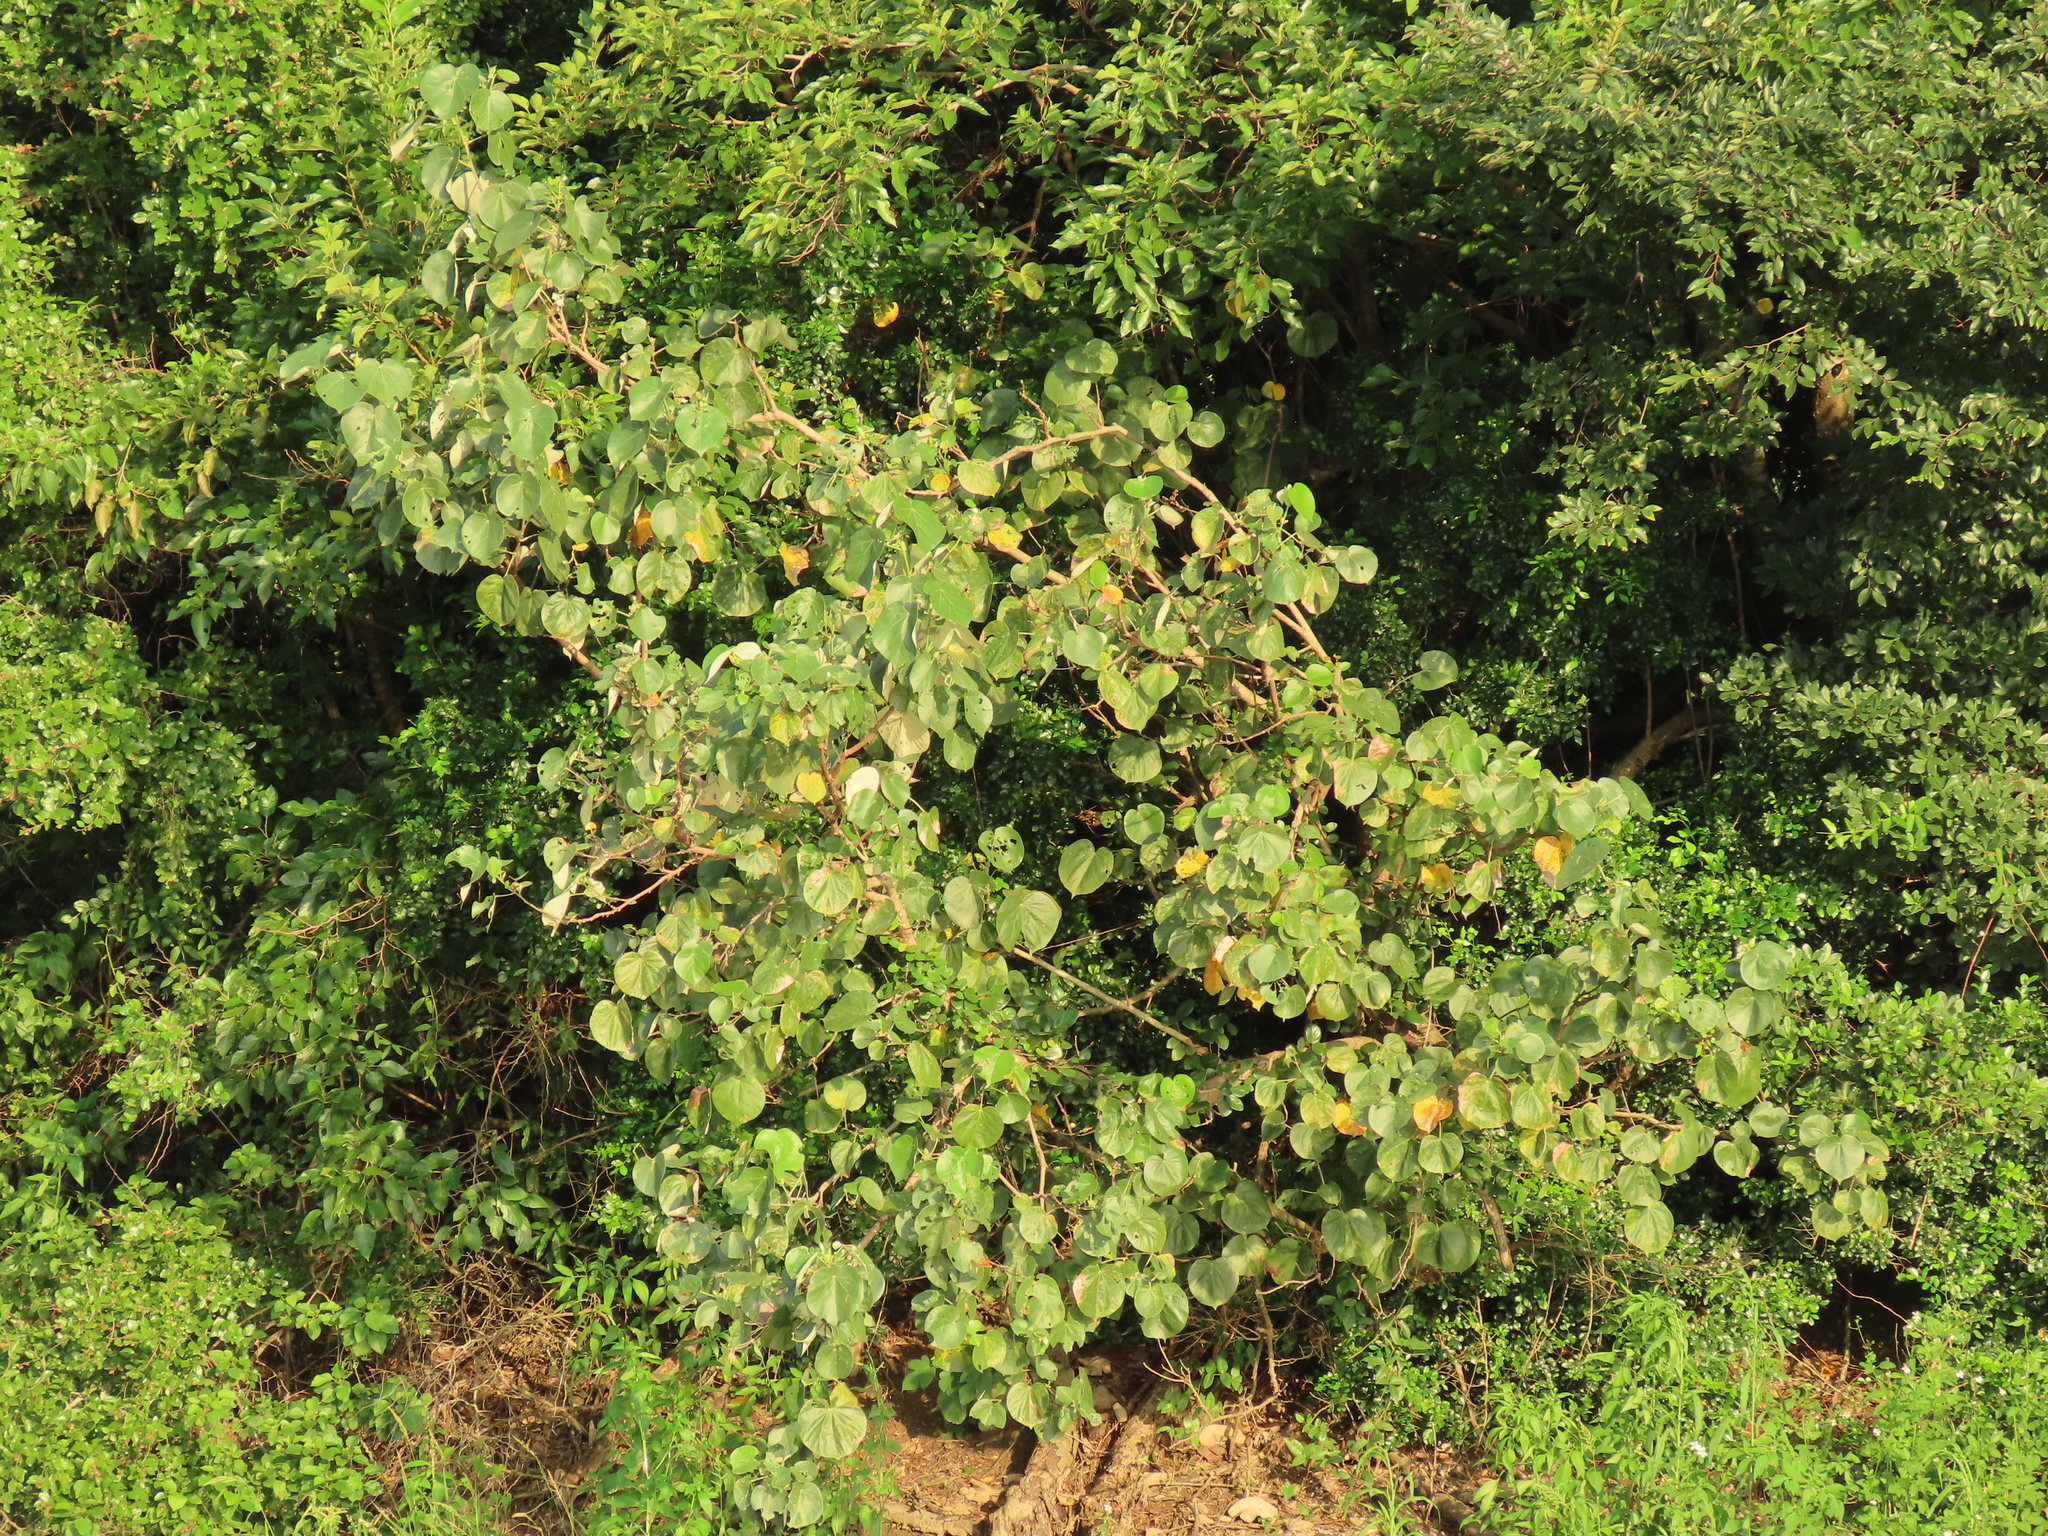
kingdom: Plantae
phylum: Tracheophyta
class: Magnoliopsida
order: Malvales
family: Malvaceae
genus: Talipariti
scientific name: Talipariti tiliaceum
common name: Sea hibiscus
